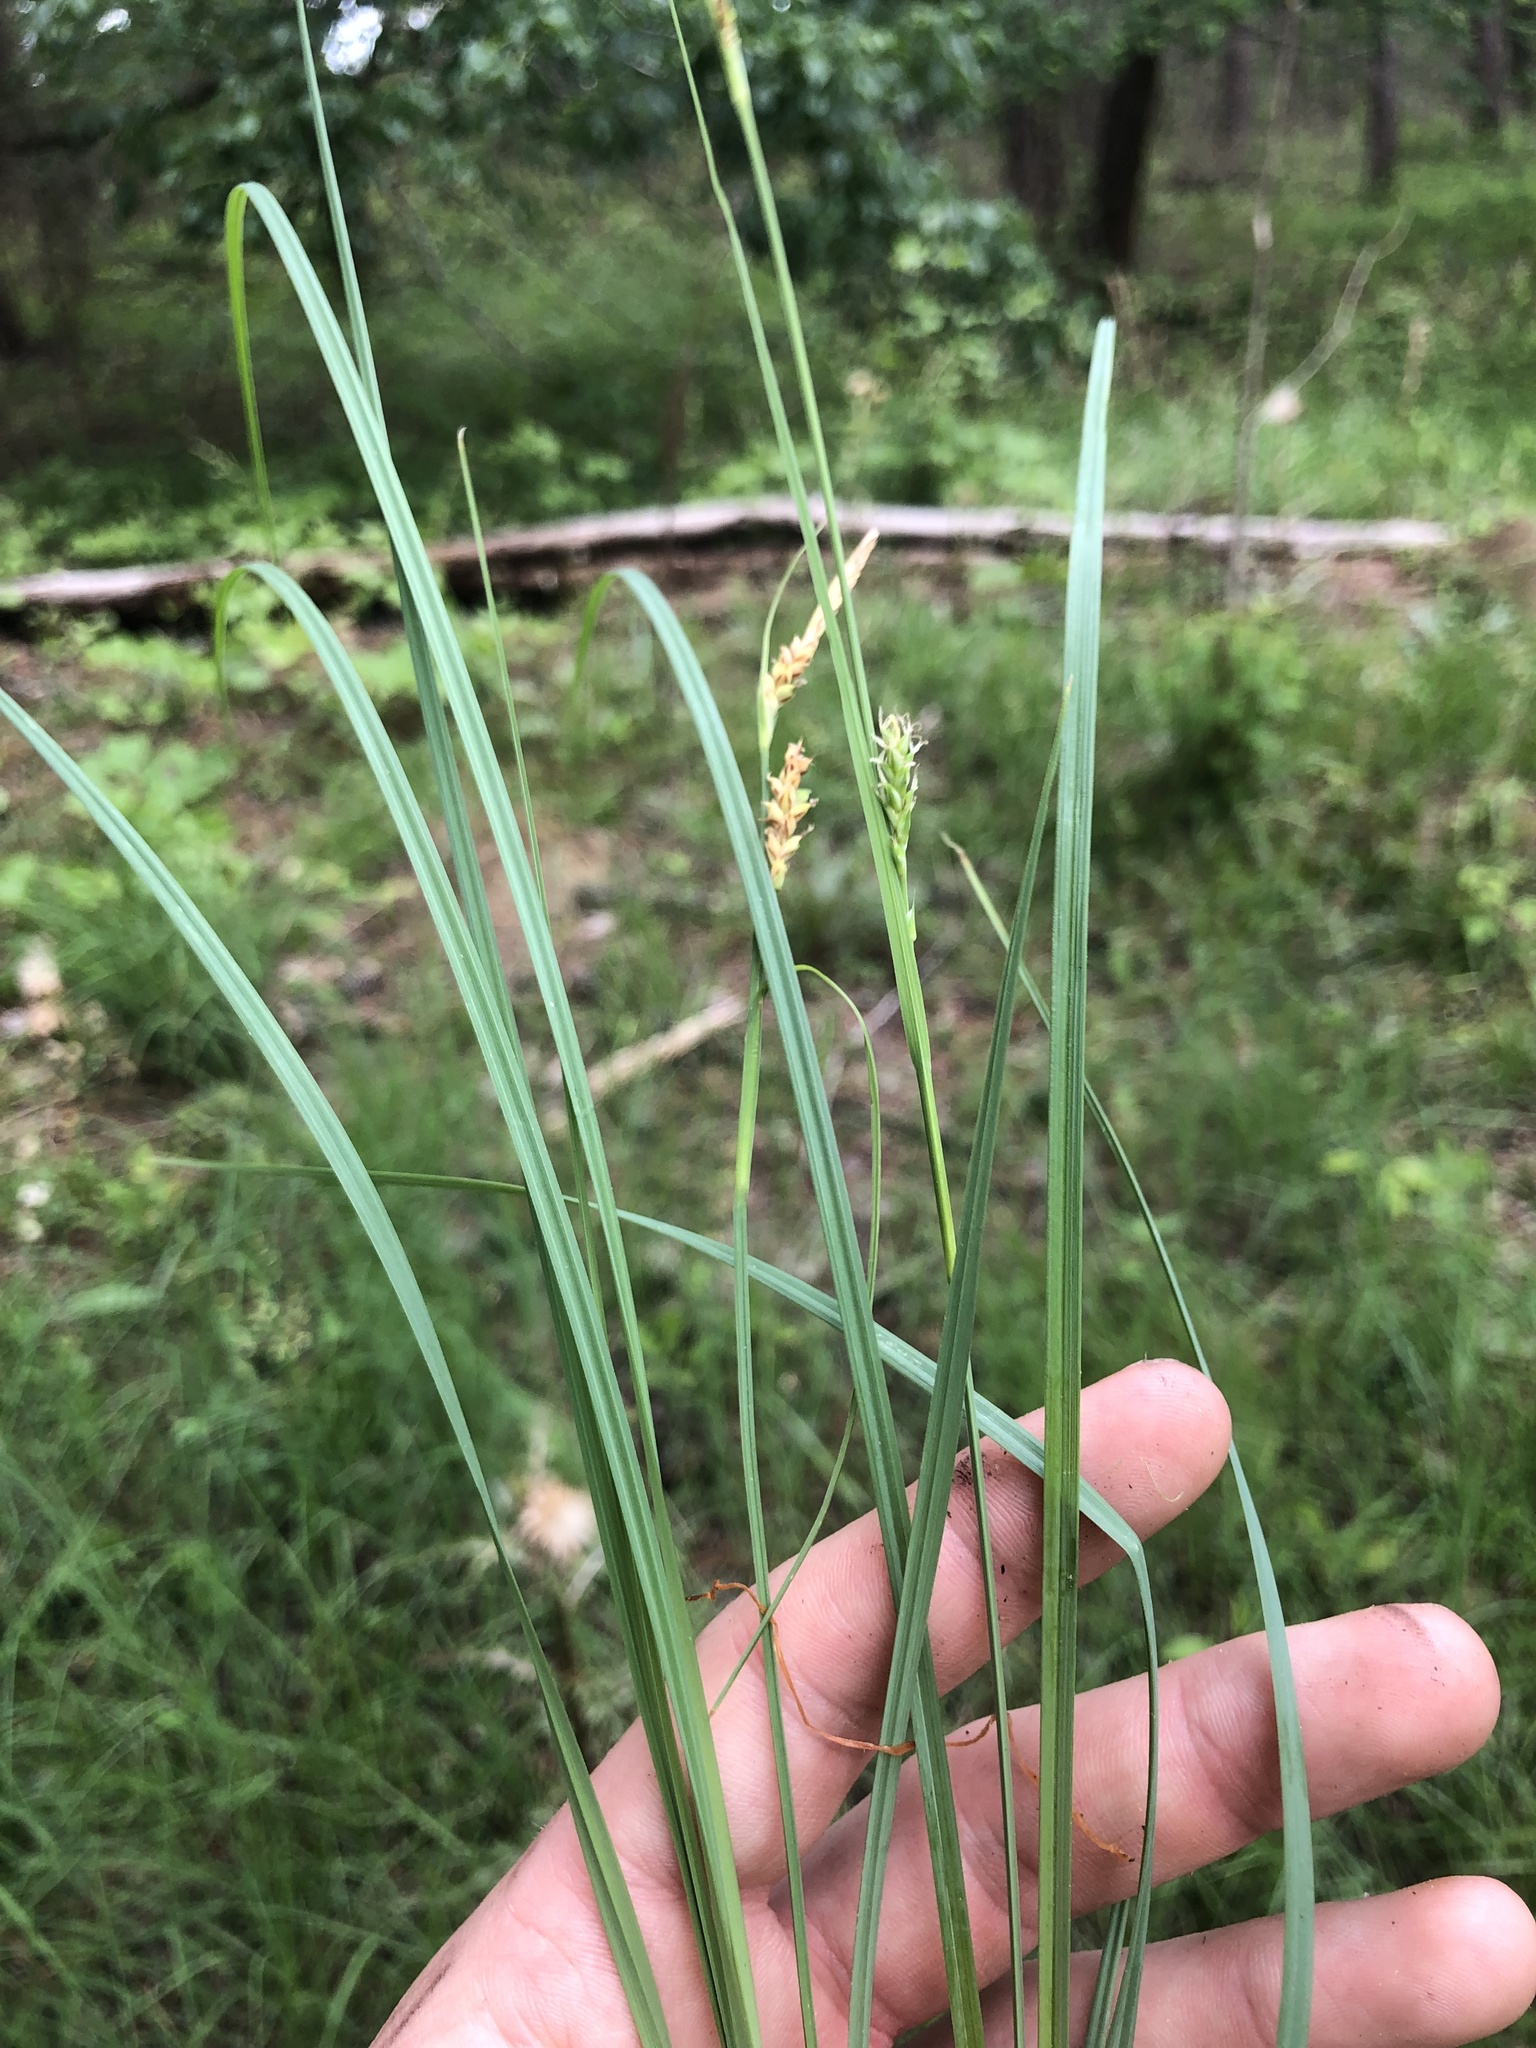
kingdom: Plantae
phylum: Tracheophyta
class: Liliopsida
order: Poales
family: Cyperaceae
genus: Carex
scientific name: Carex meadii
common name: Mead's sedge
